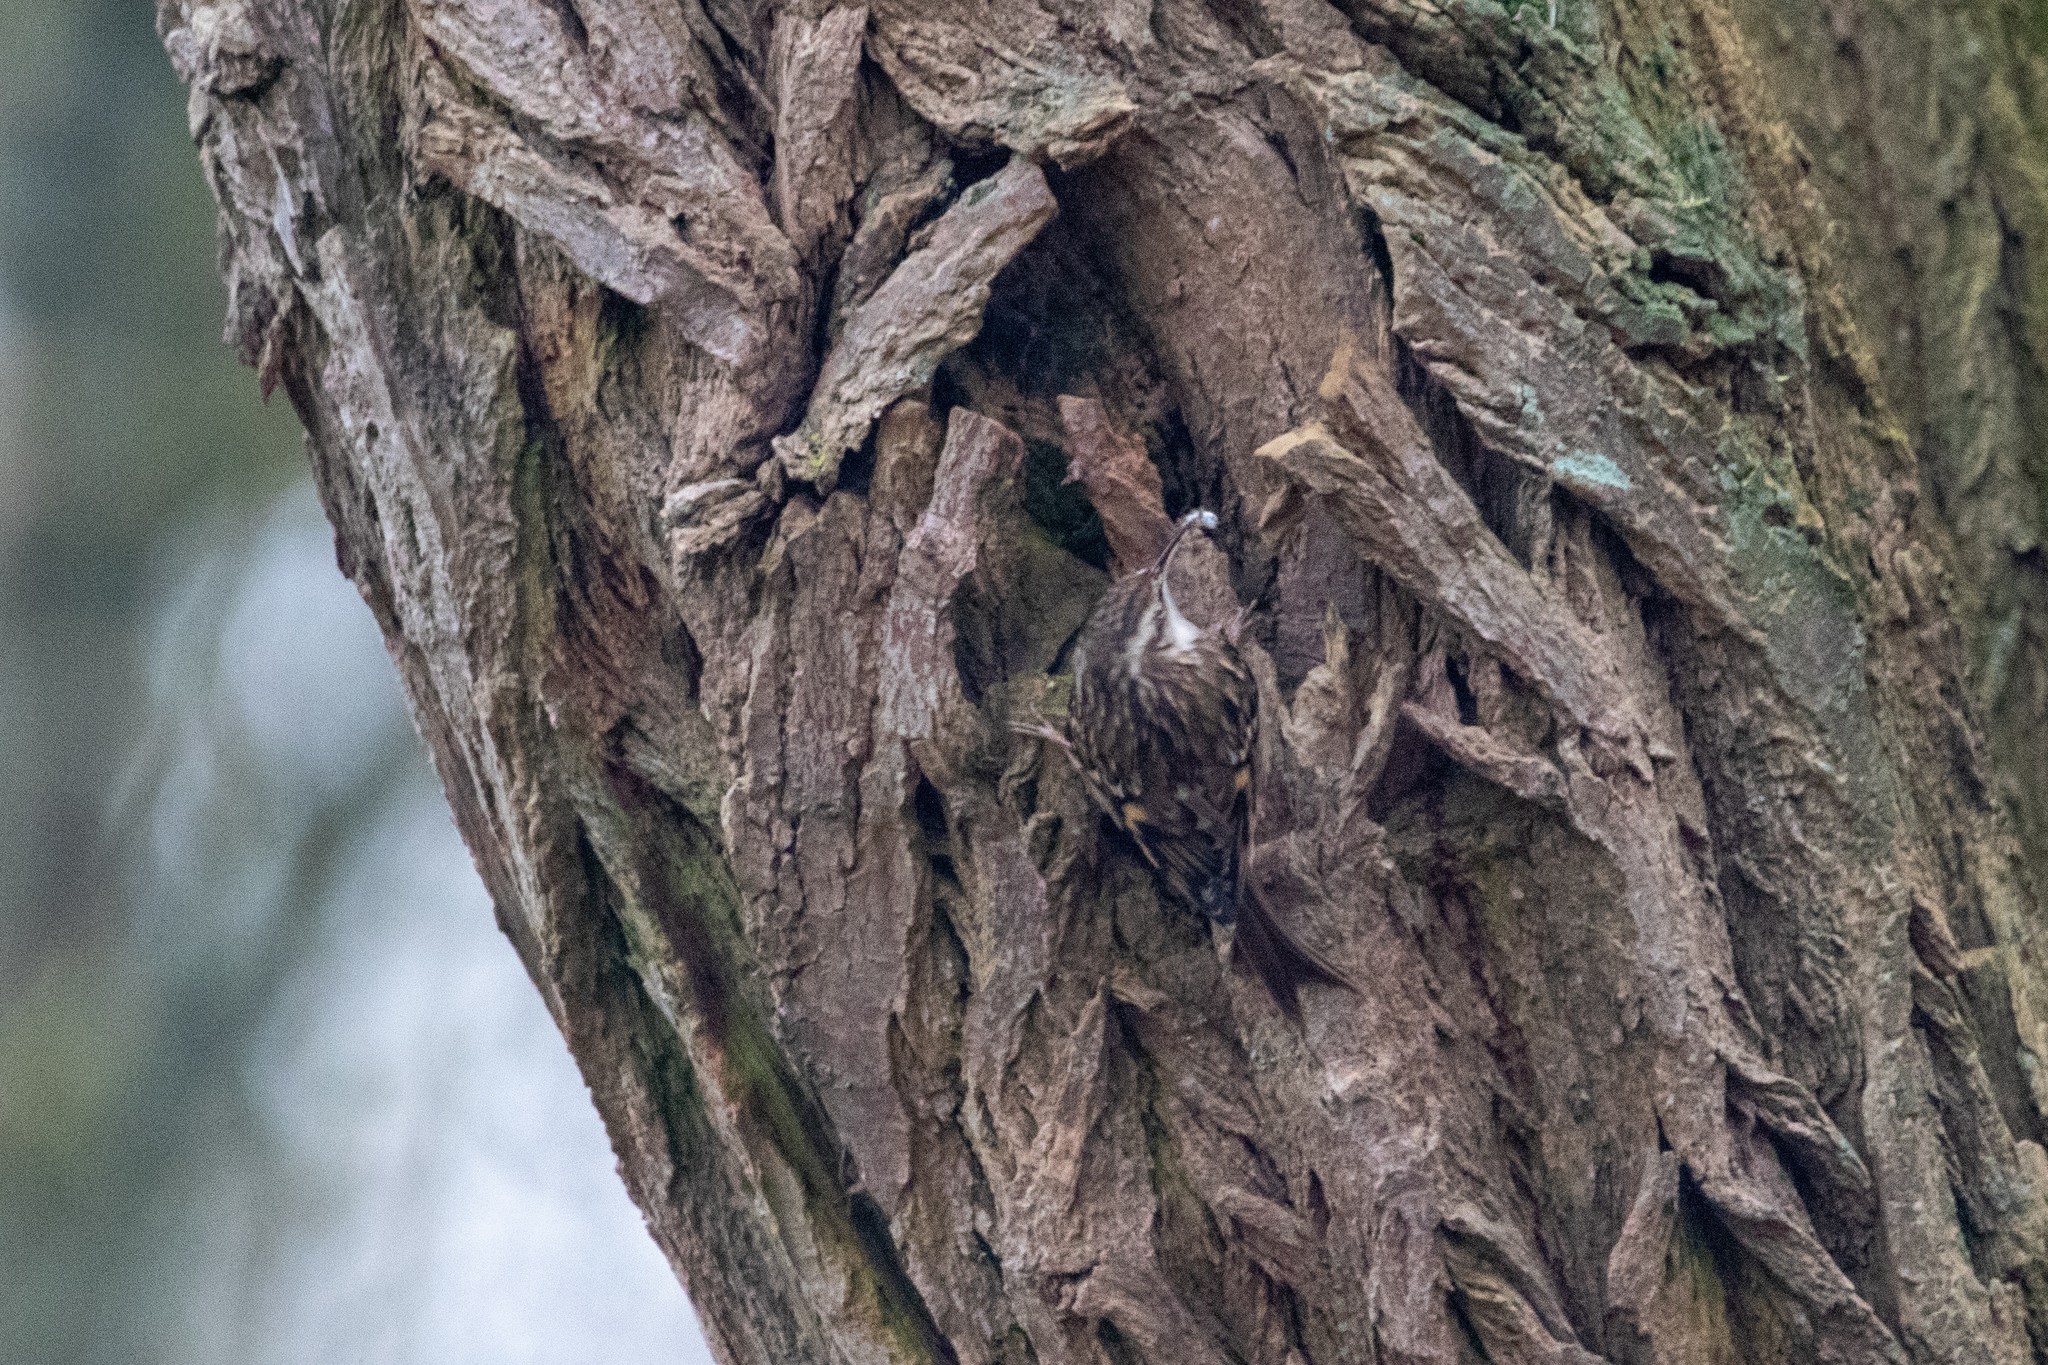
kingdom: Animalia
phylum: Chordata
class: Aves
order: Passeriformes
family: Certhiidae
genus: Certhia
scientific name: Certhia brachydactyla
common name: Short-toed treecreeper
